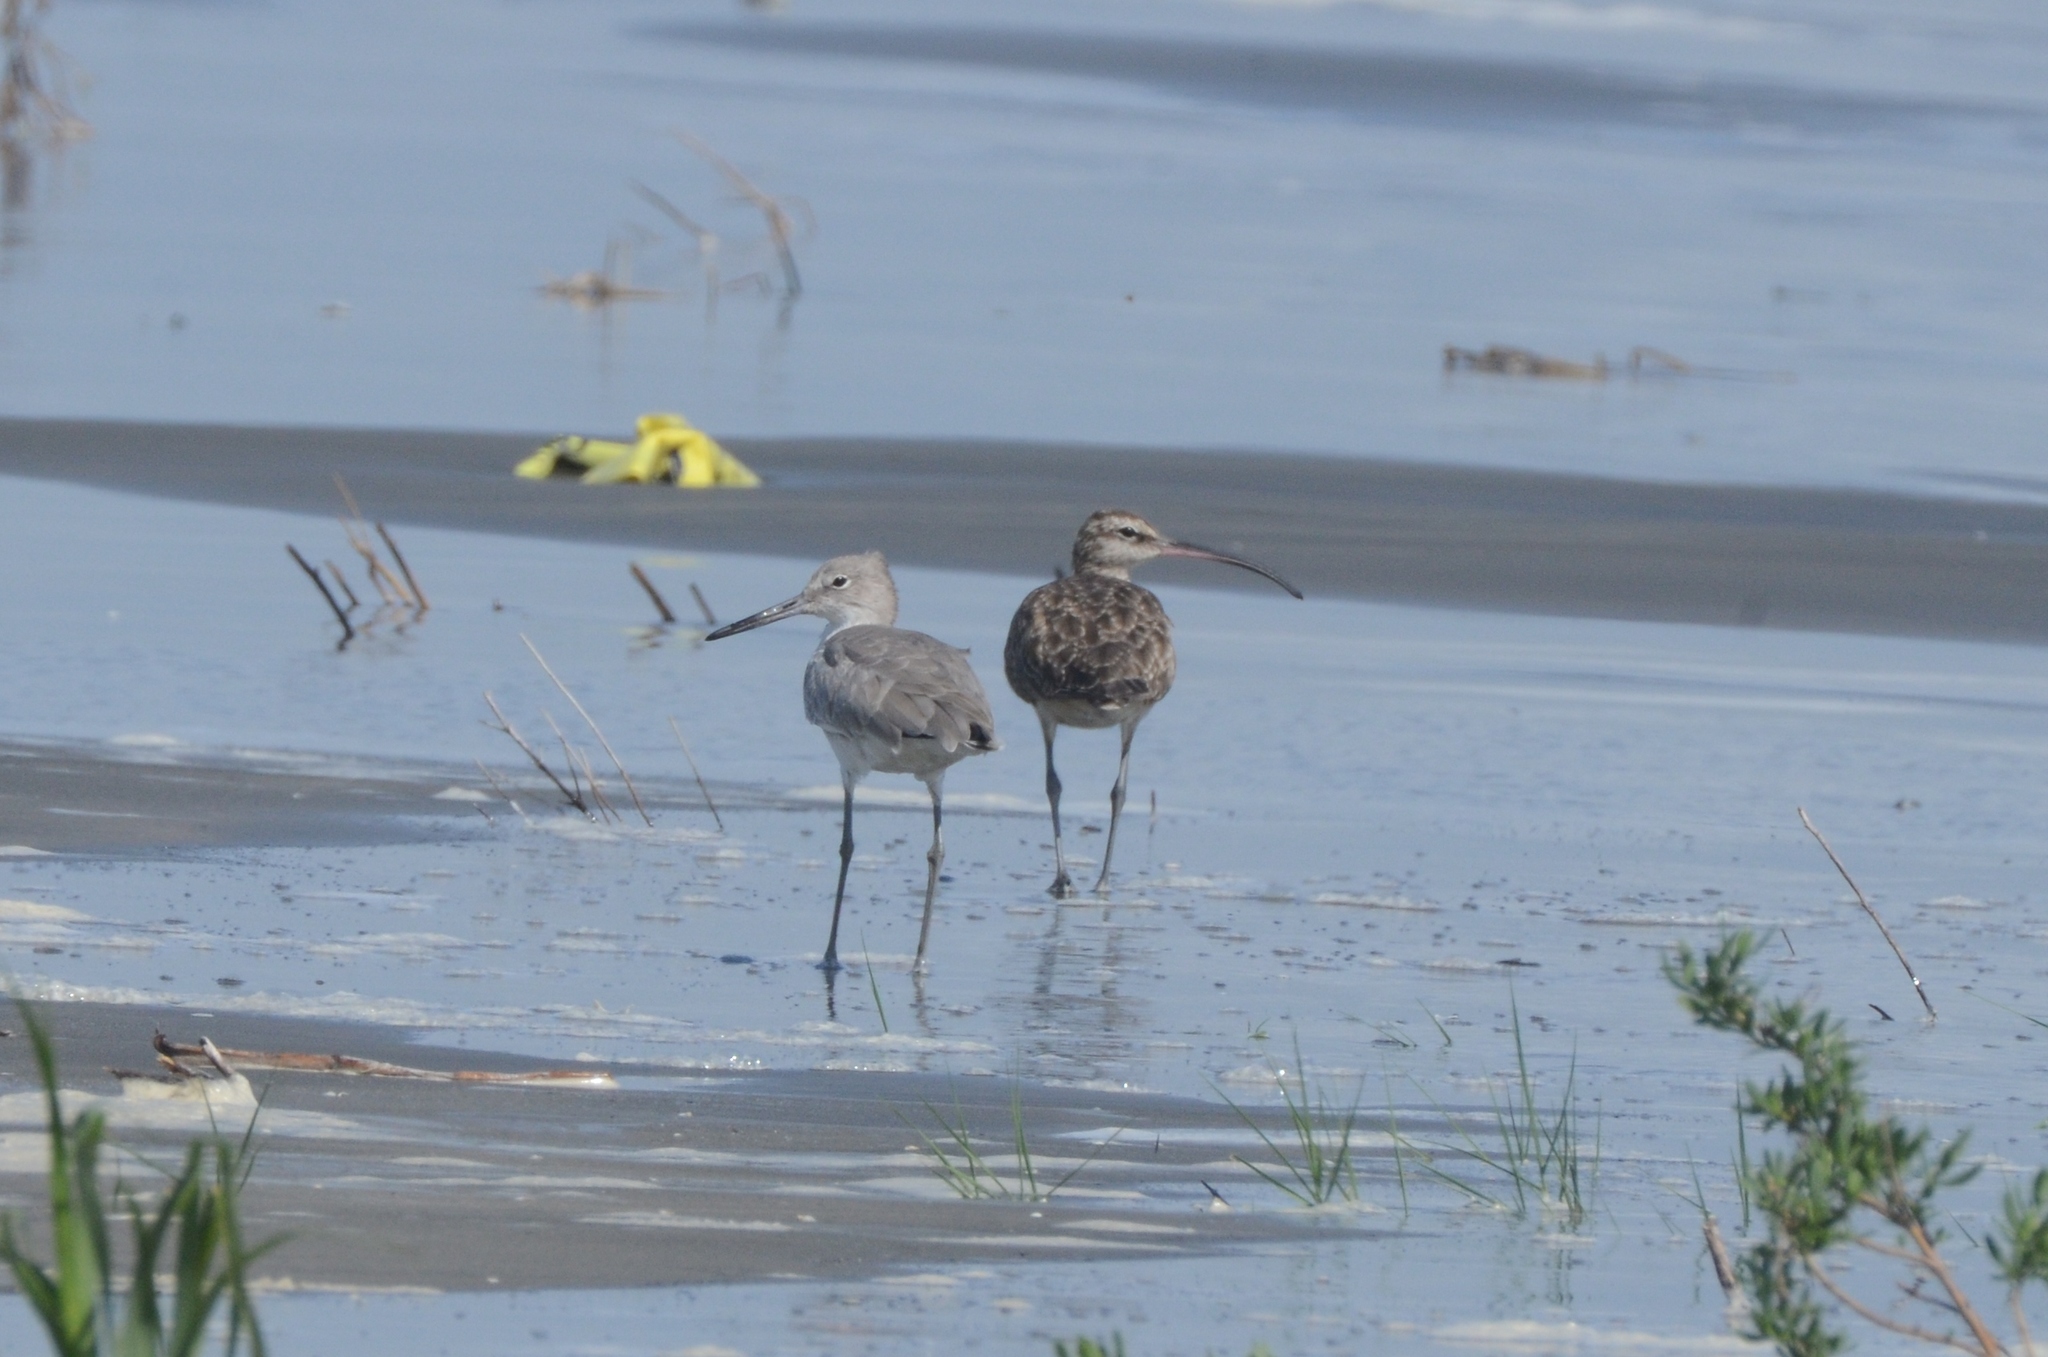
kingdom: Animalia
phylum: Chordata
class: Aves
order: Charadriiformes
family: Scolopacidae
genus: Numenius
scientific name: Numenius phaeopus
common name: Whimbrel
